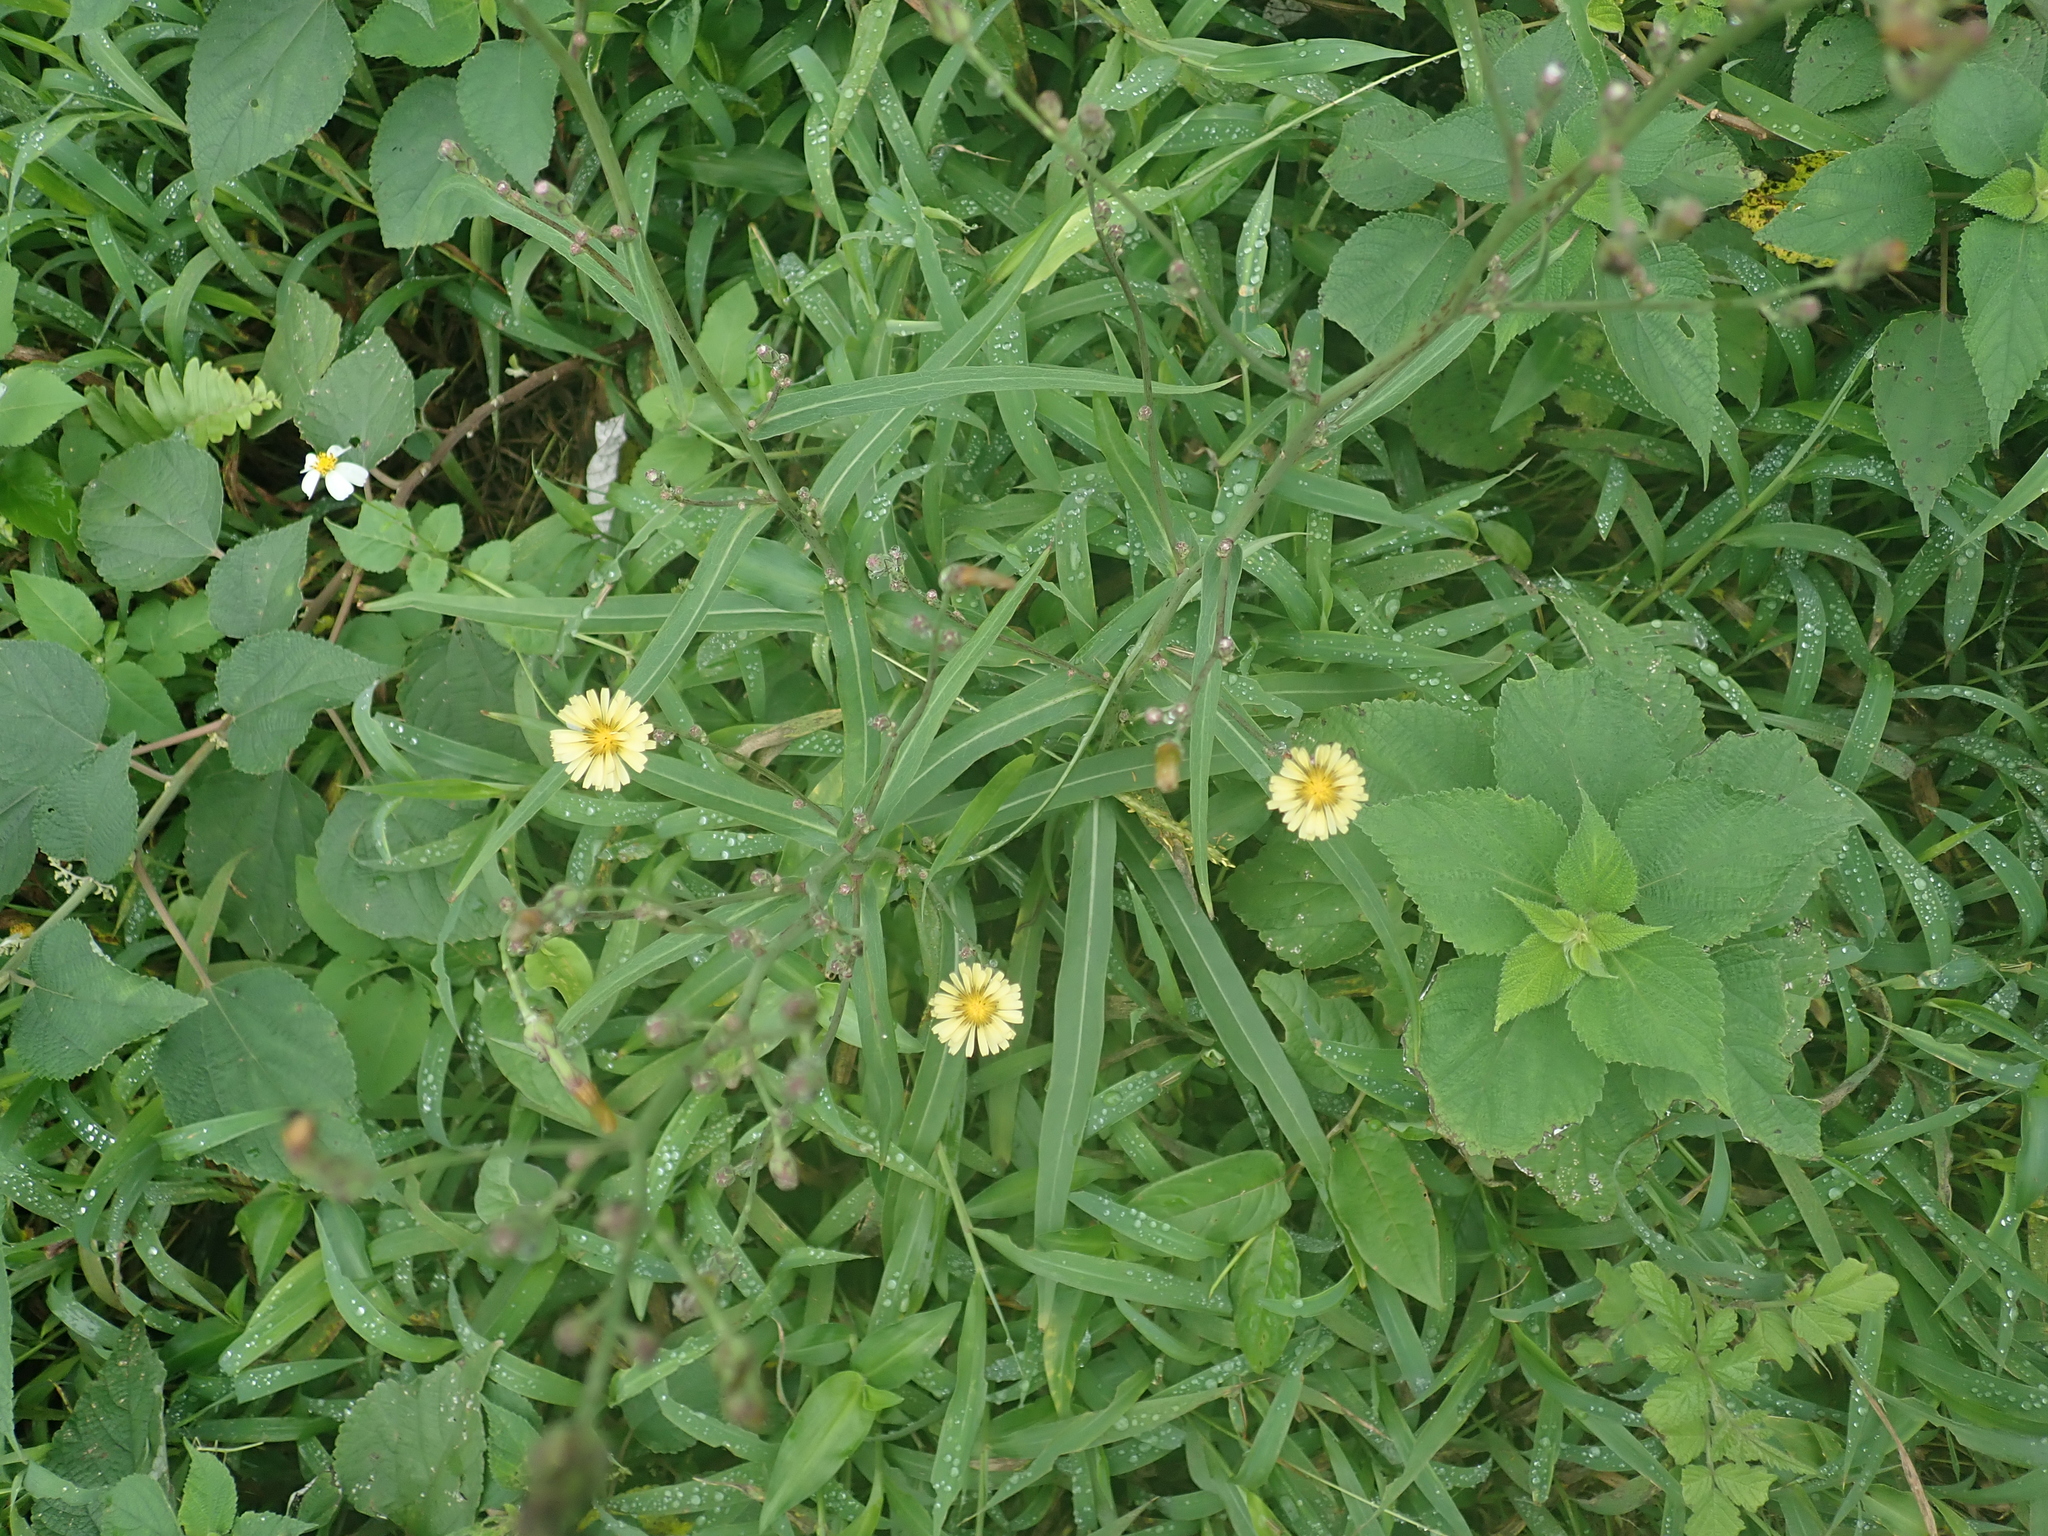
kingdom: Plantae
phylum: Tracheophyta
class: Magnoliopsida
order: Asterales
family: Asteraceae
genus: Lactuca
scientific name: Lactuca indica
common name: Wild lettuce
